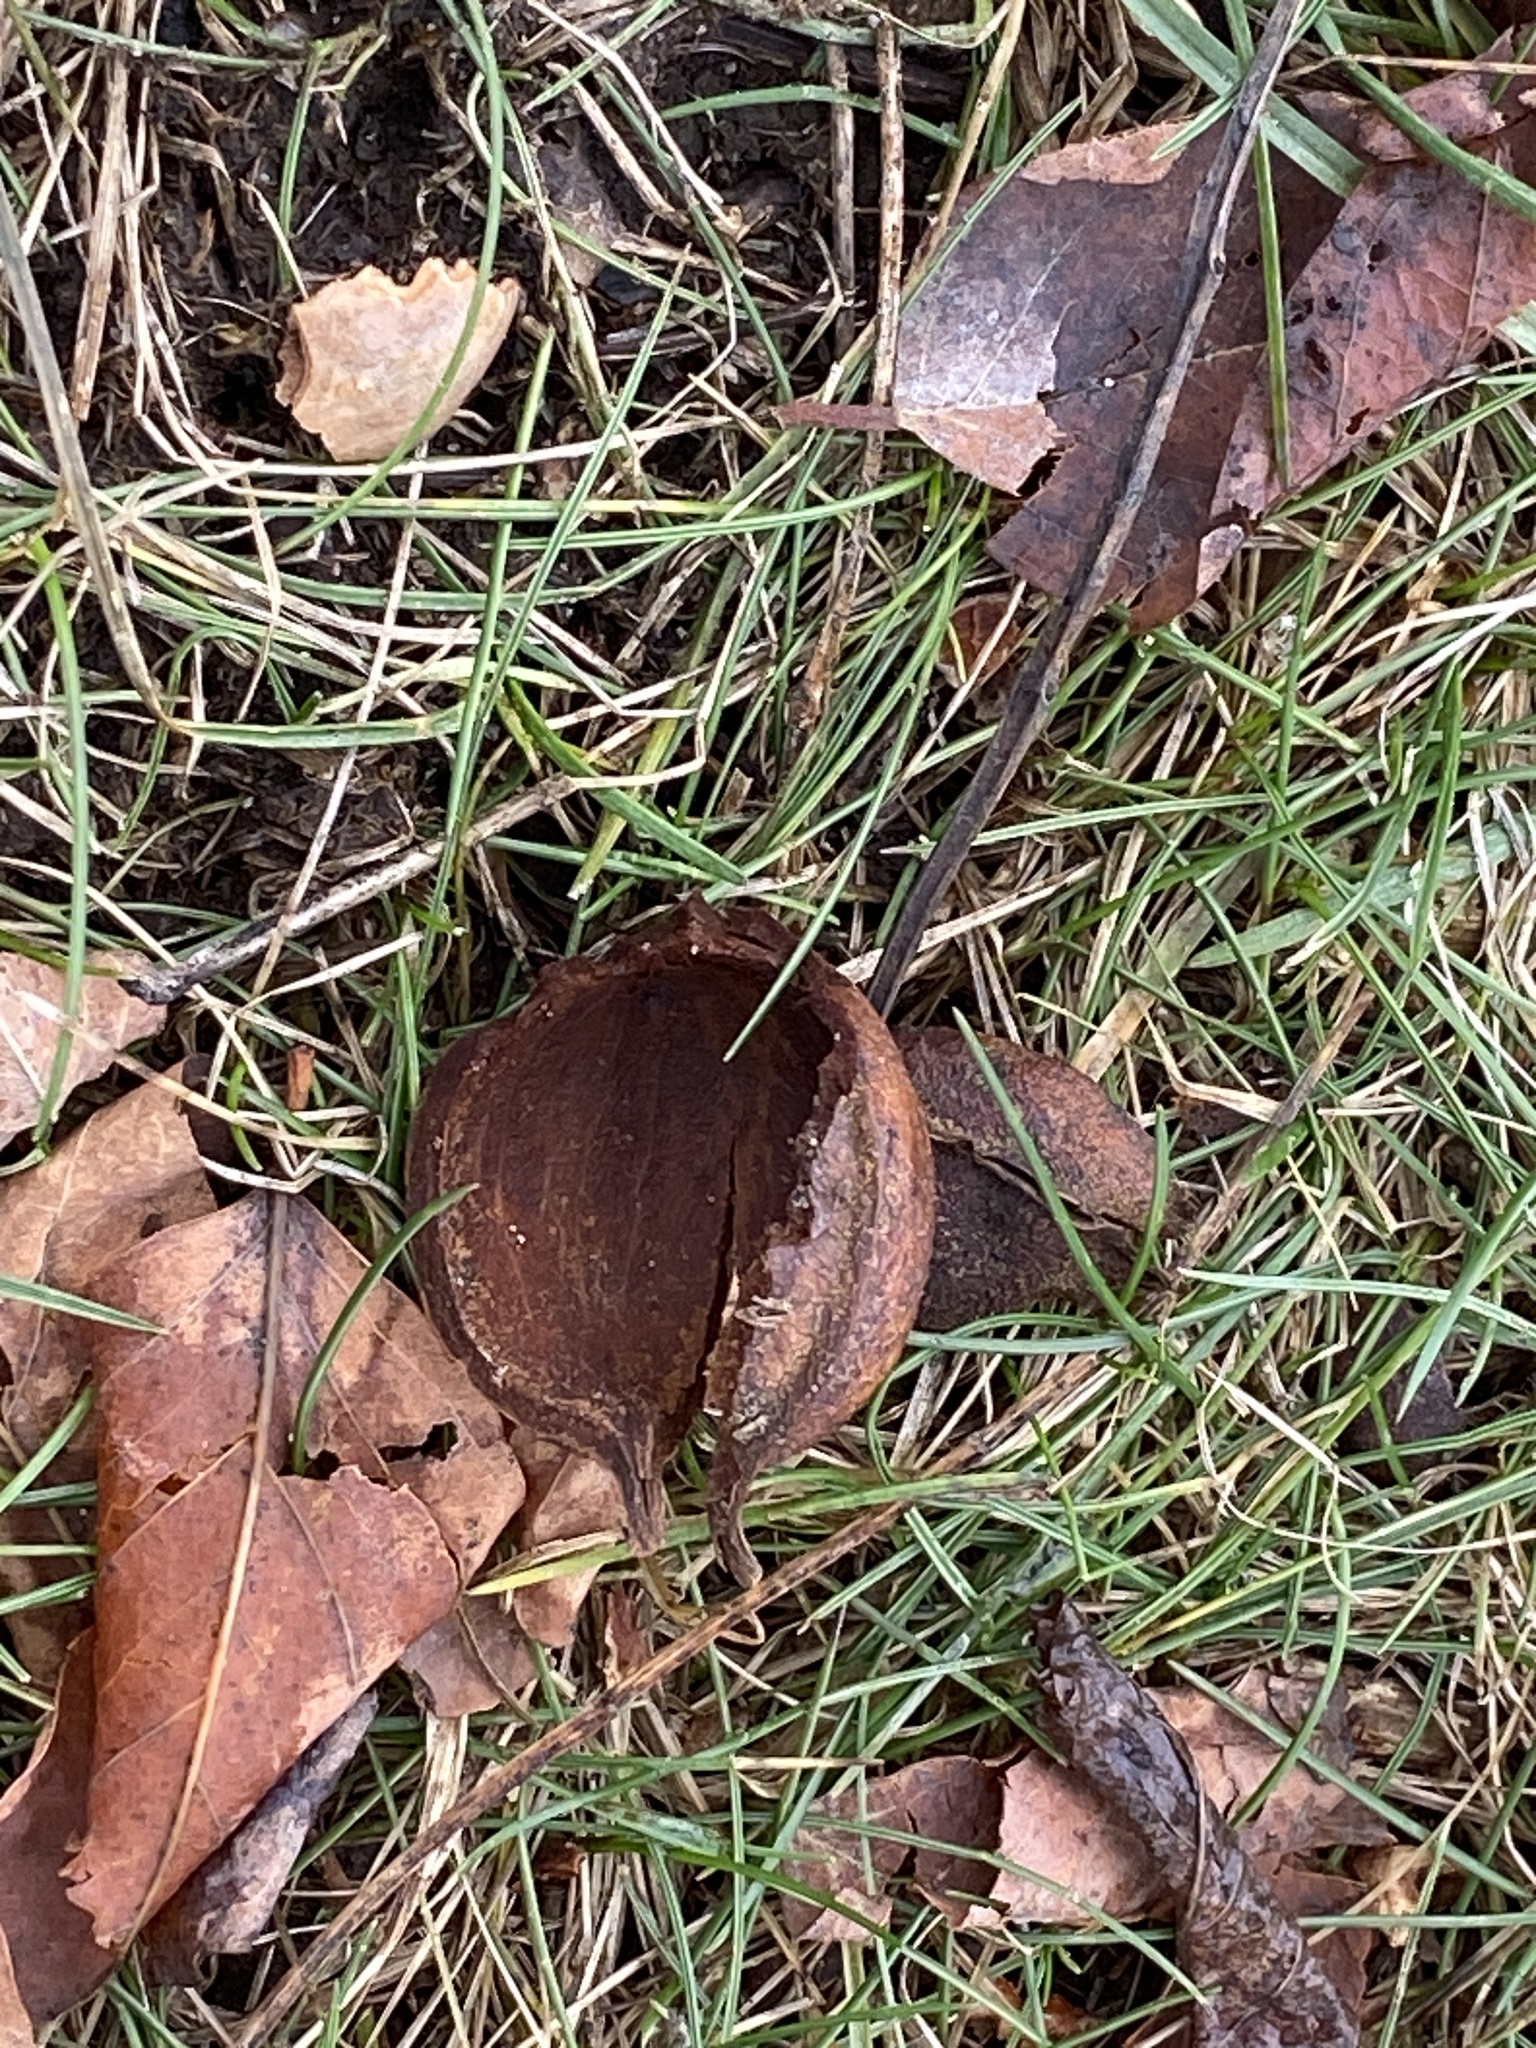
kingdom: Plantae
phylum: Tracheophyta
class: Magnoliopsida
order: Fagales
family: Juglandaceae
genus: Carya
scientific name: Carya cordiformis
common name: Bitternut hickory
